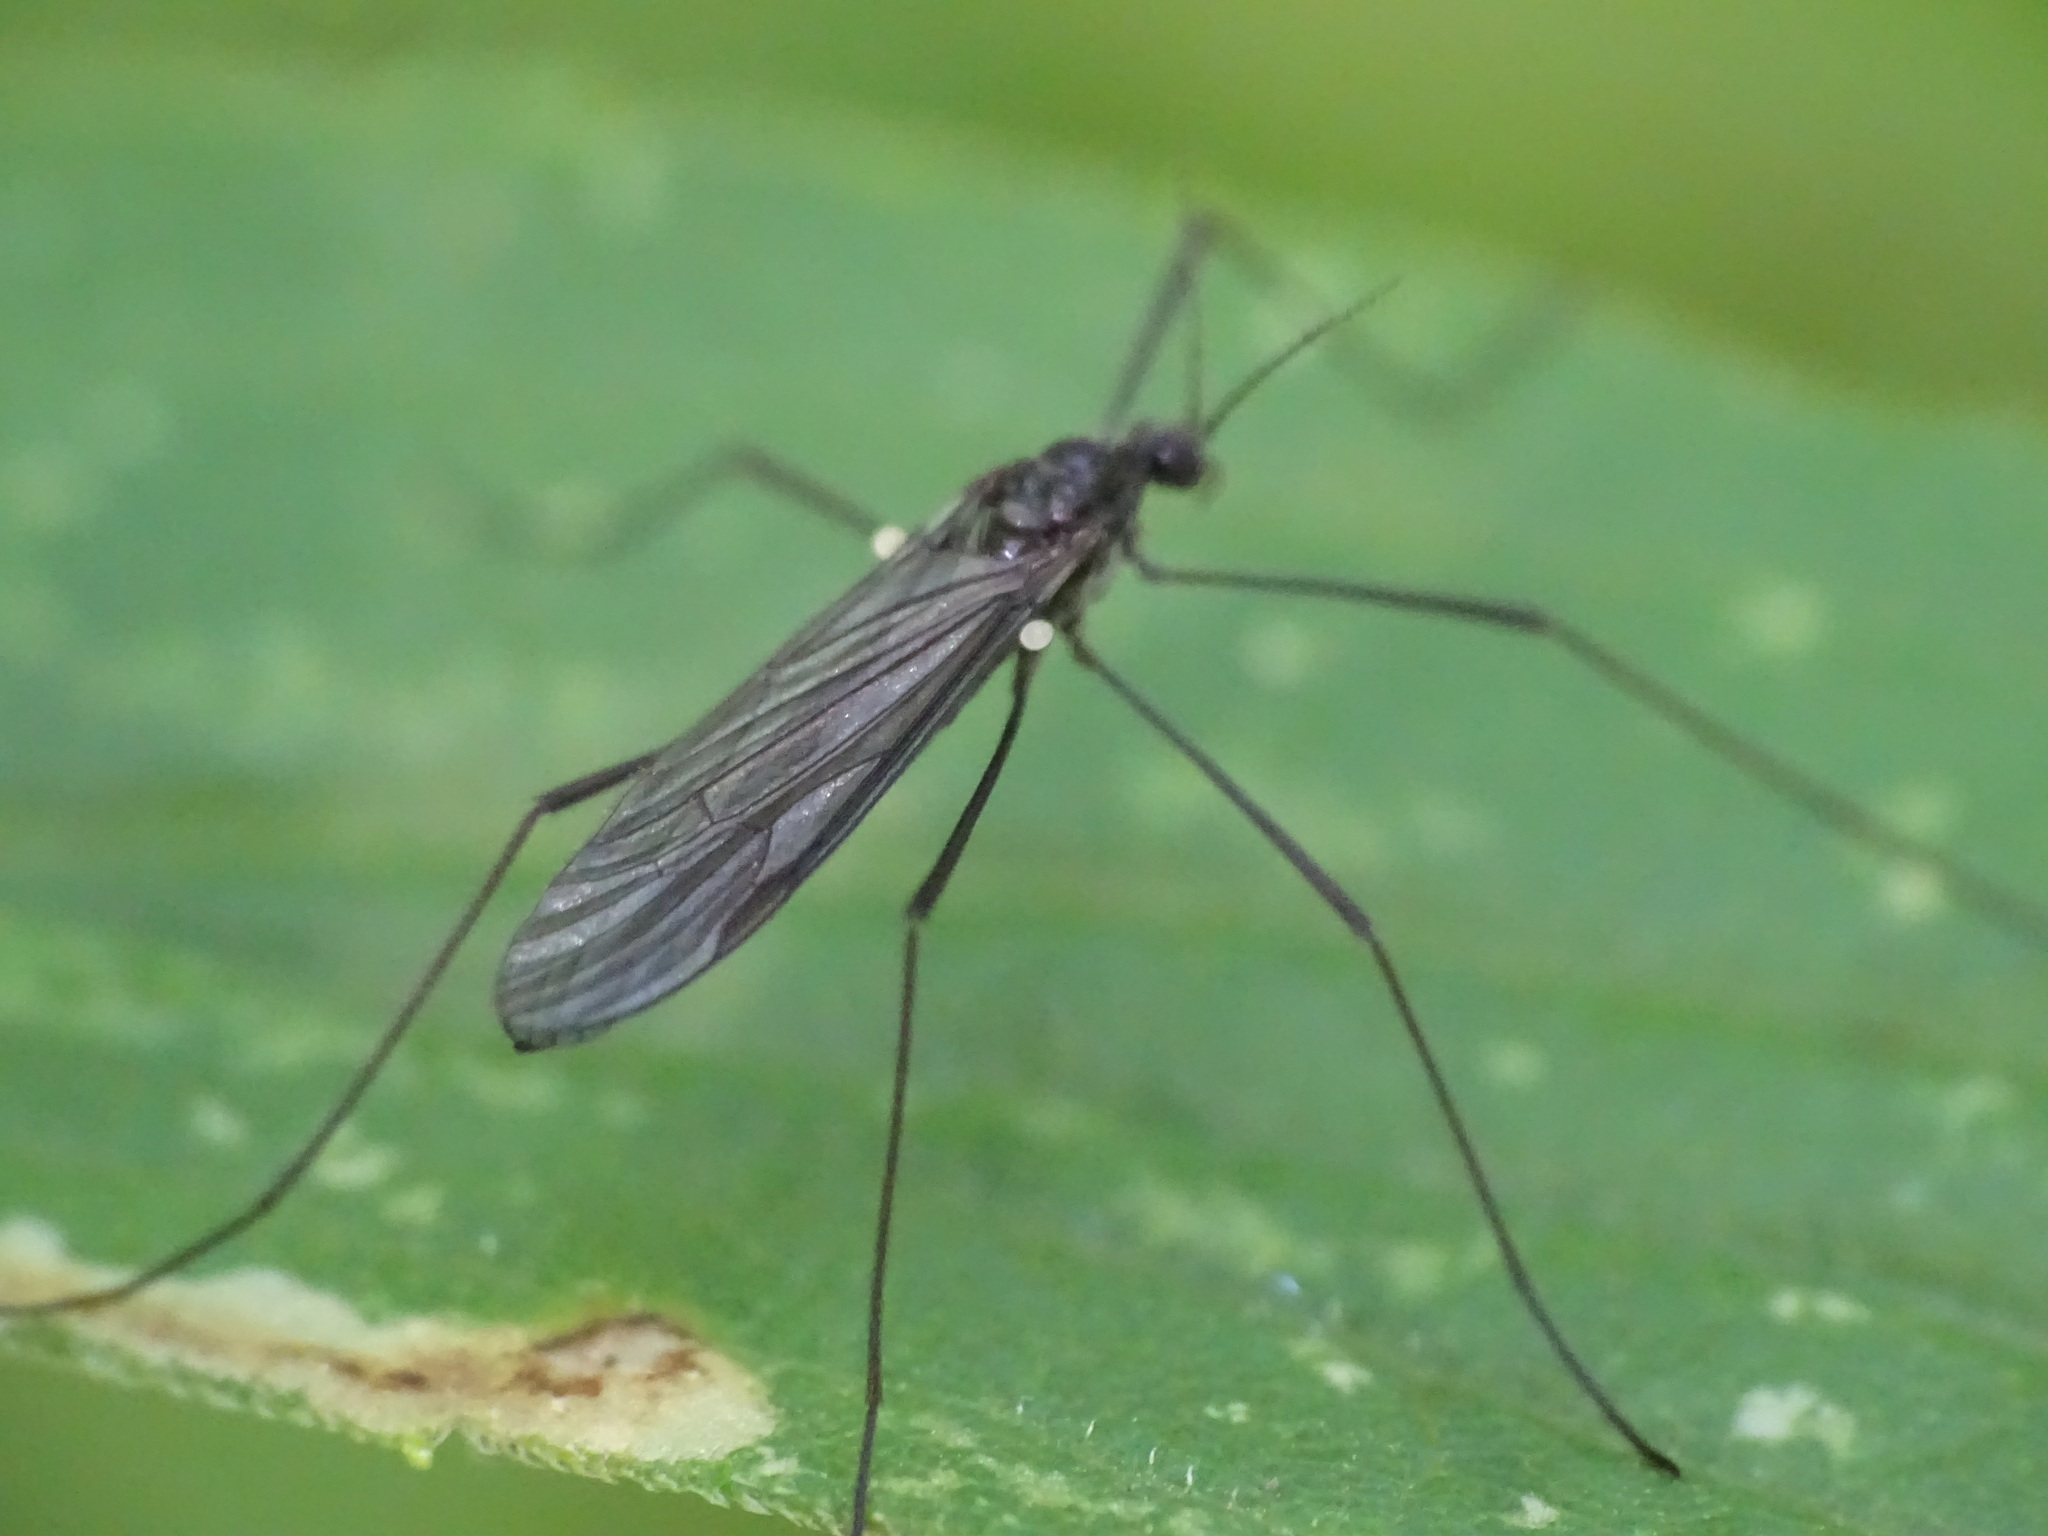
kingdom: Animalia
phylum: Arthropoda
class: Insecta
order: Diptera
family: Limoniidae
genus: Gnophomyia
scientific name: Gnophomyia tristissima
